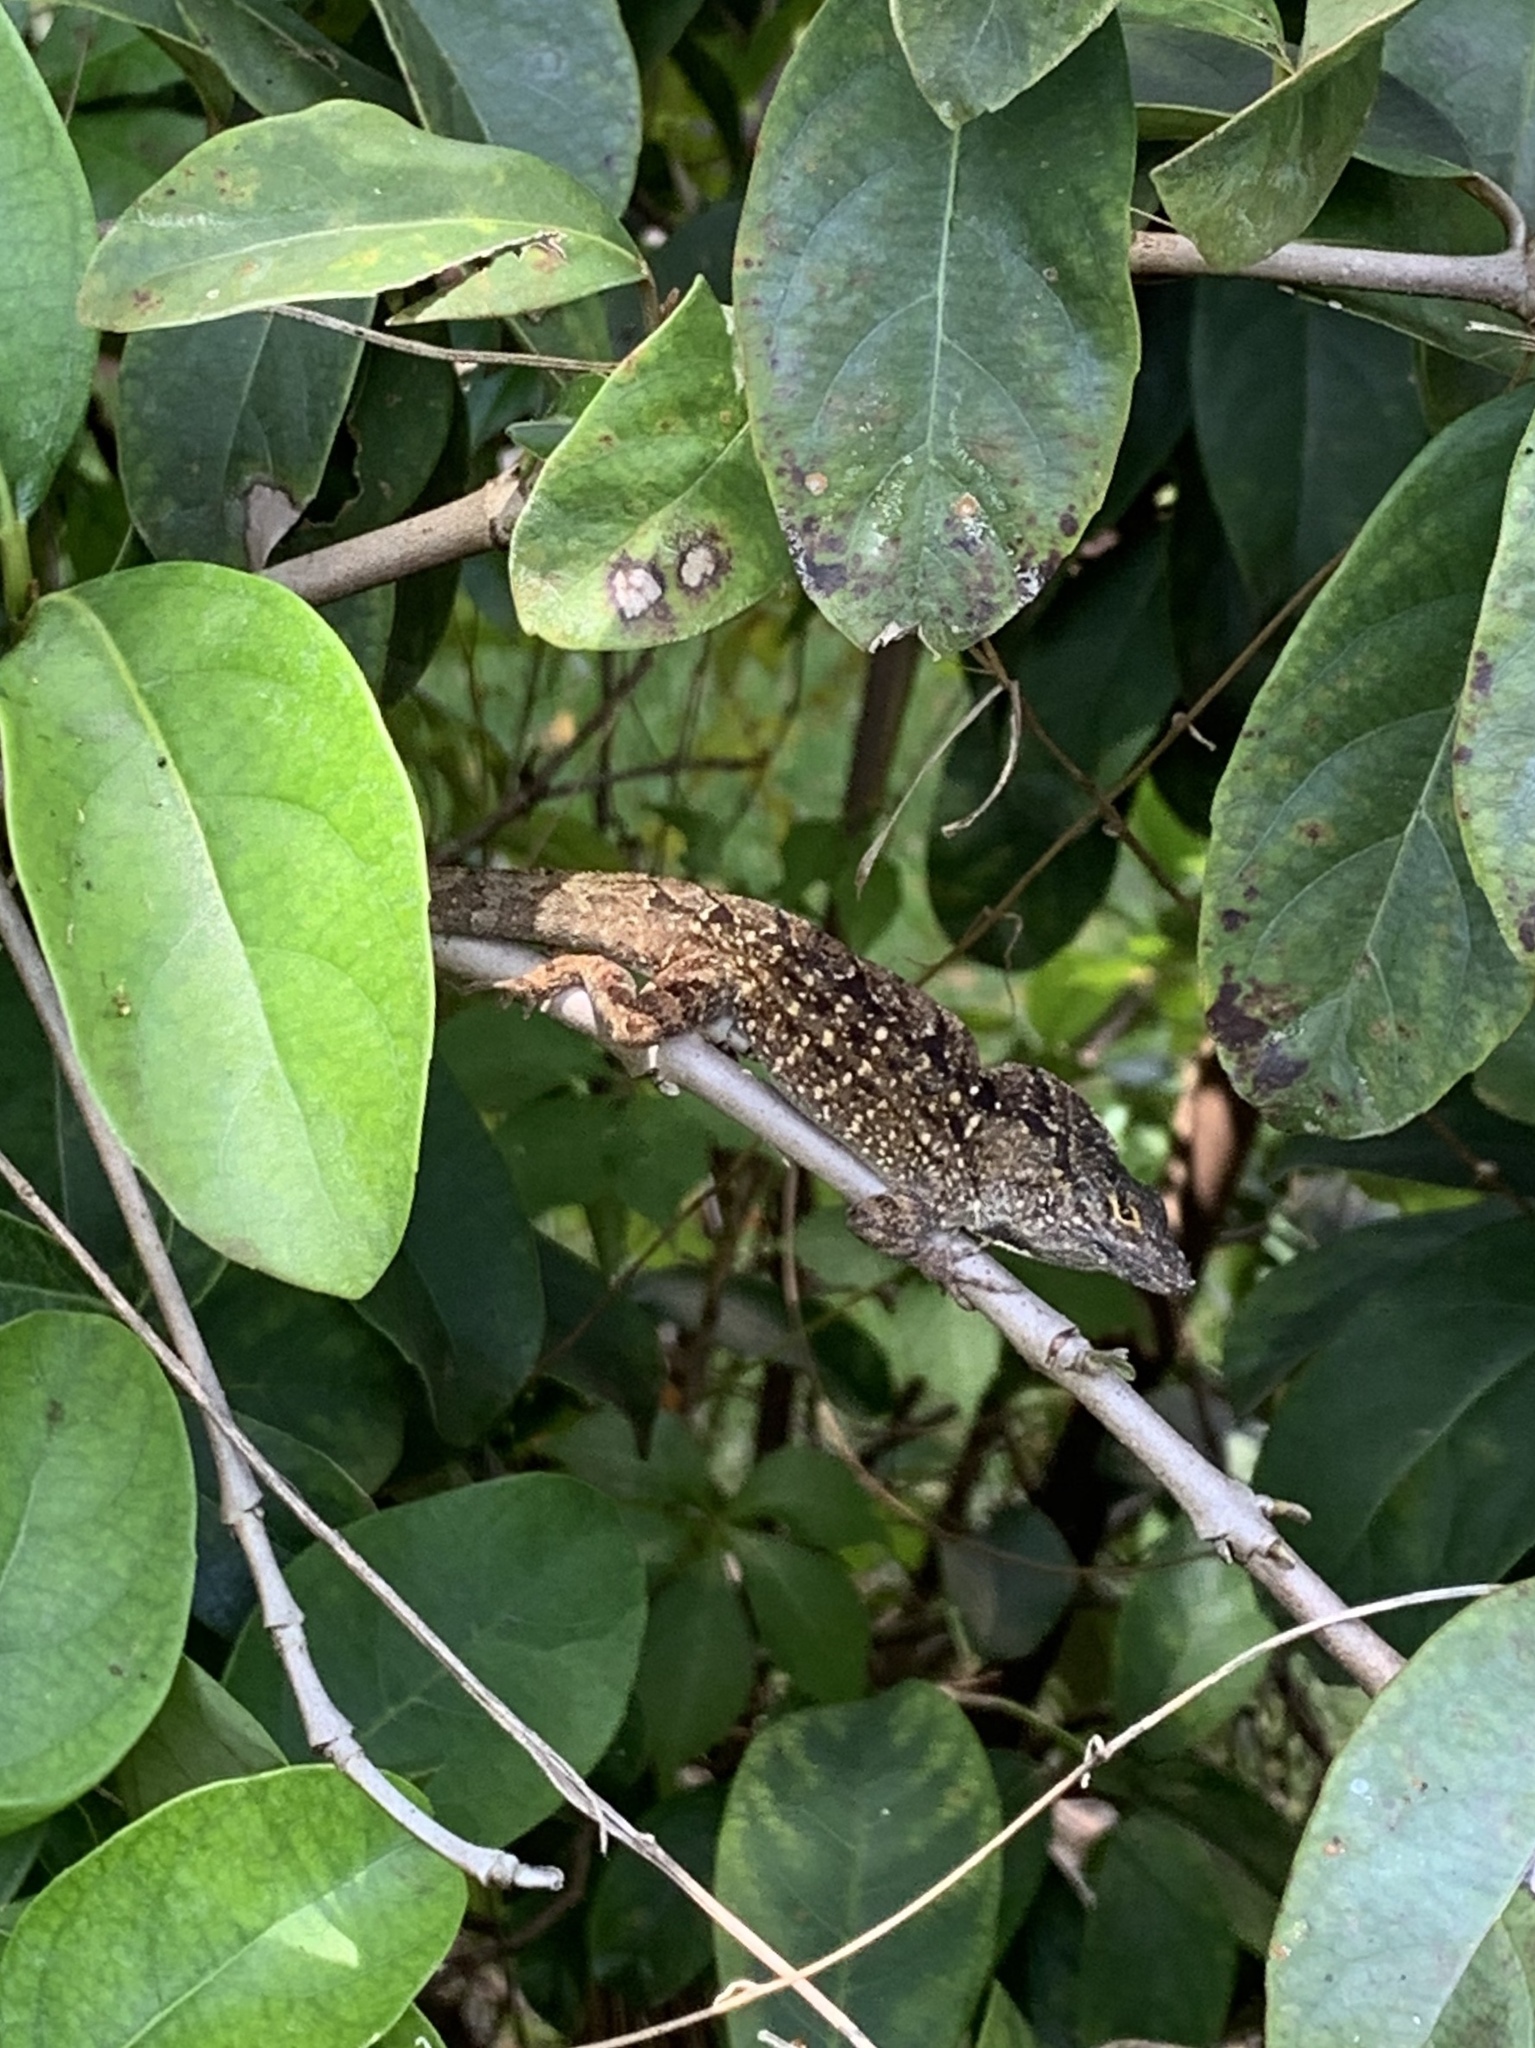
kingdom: Animalia
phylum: Chordata
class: Squamata
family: Dactyloidae
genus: Anolis
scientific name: Anolis sagrei
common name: Brown anole
